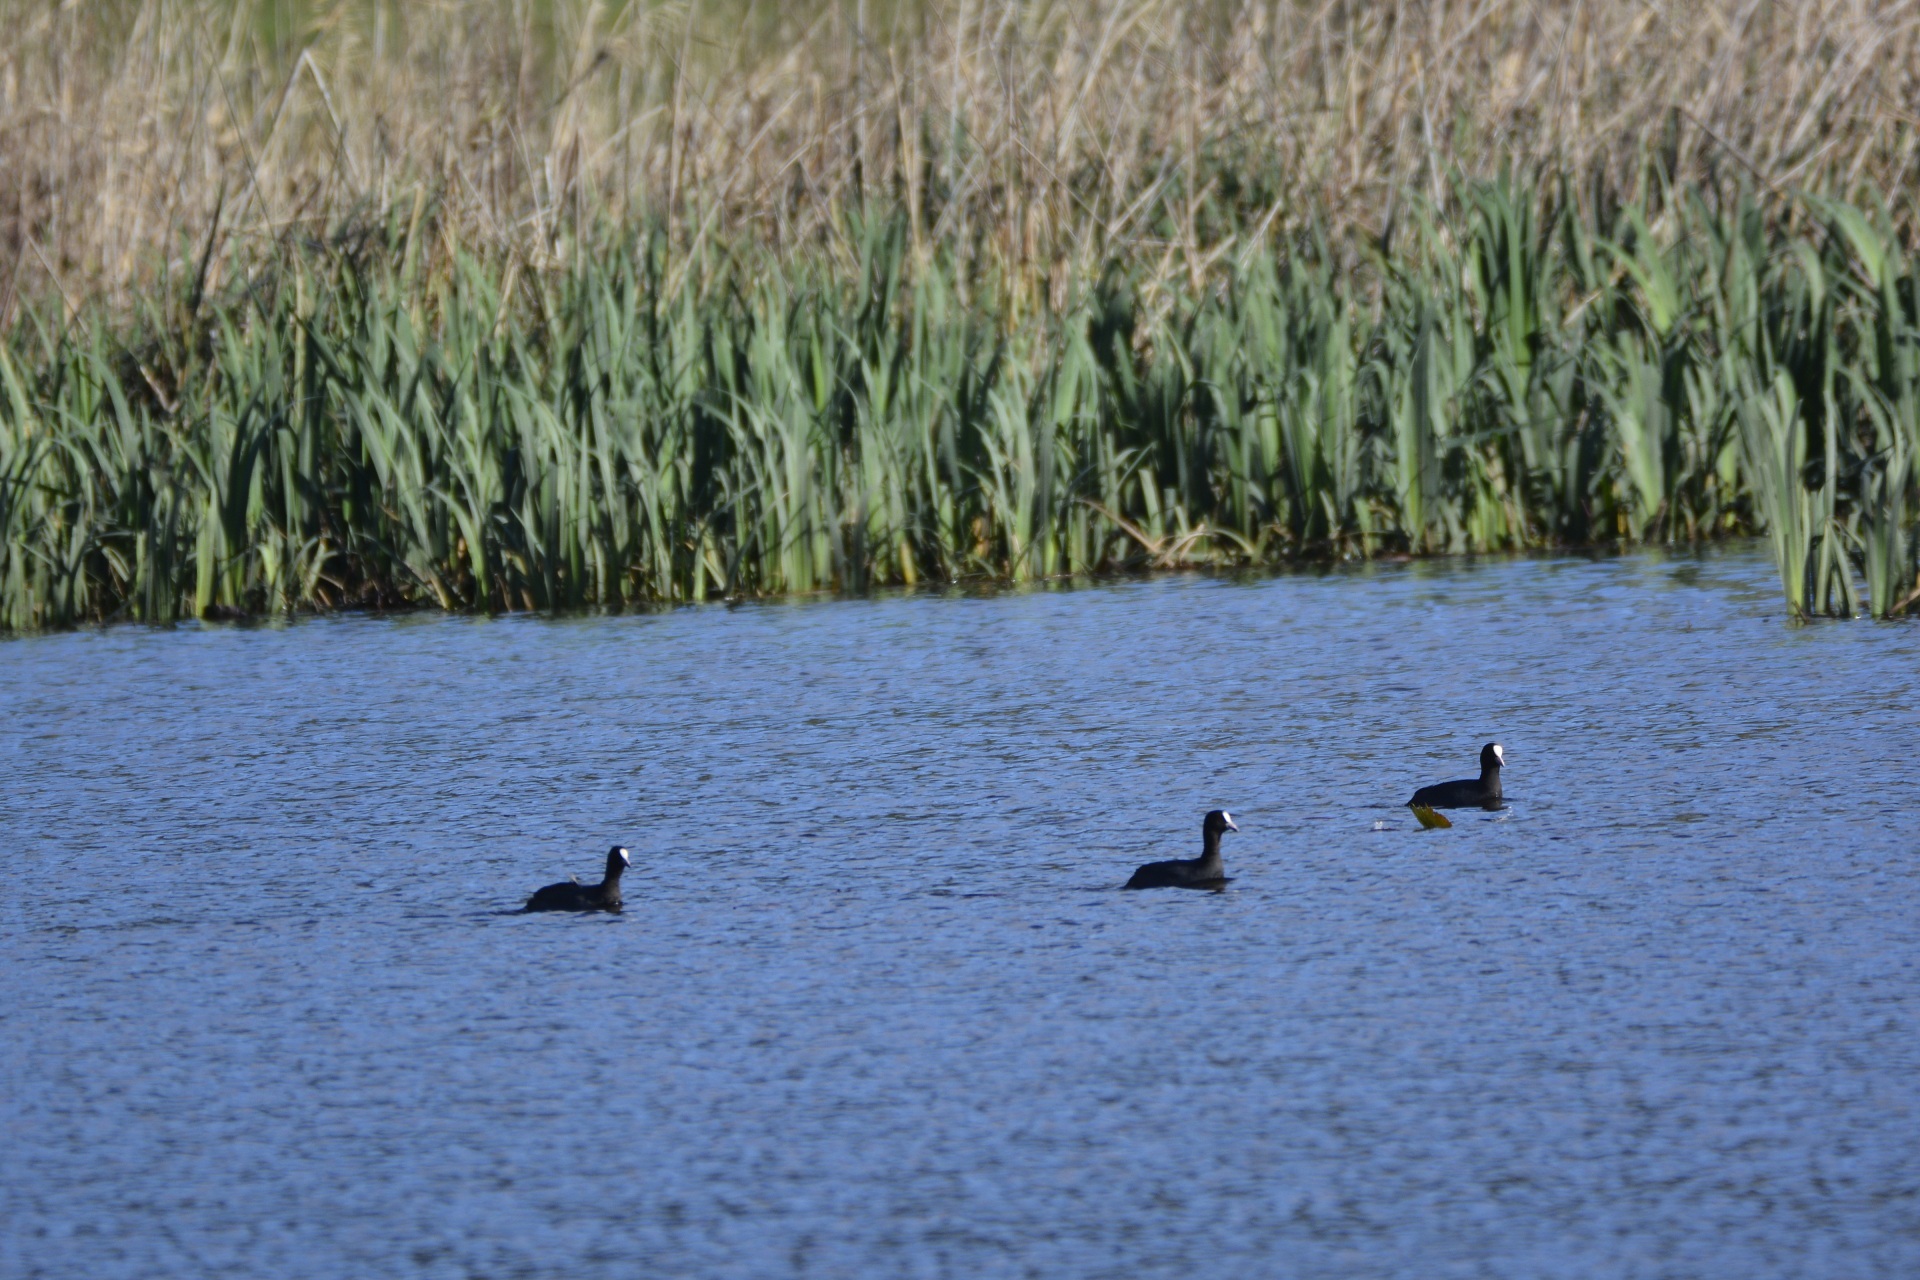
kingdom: Animalia
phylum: Chordata
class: Aves
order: Gruiformes
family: Rallidae
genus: Fulica
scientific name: Fulica atra
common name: Eurasian coot
